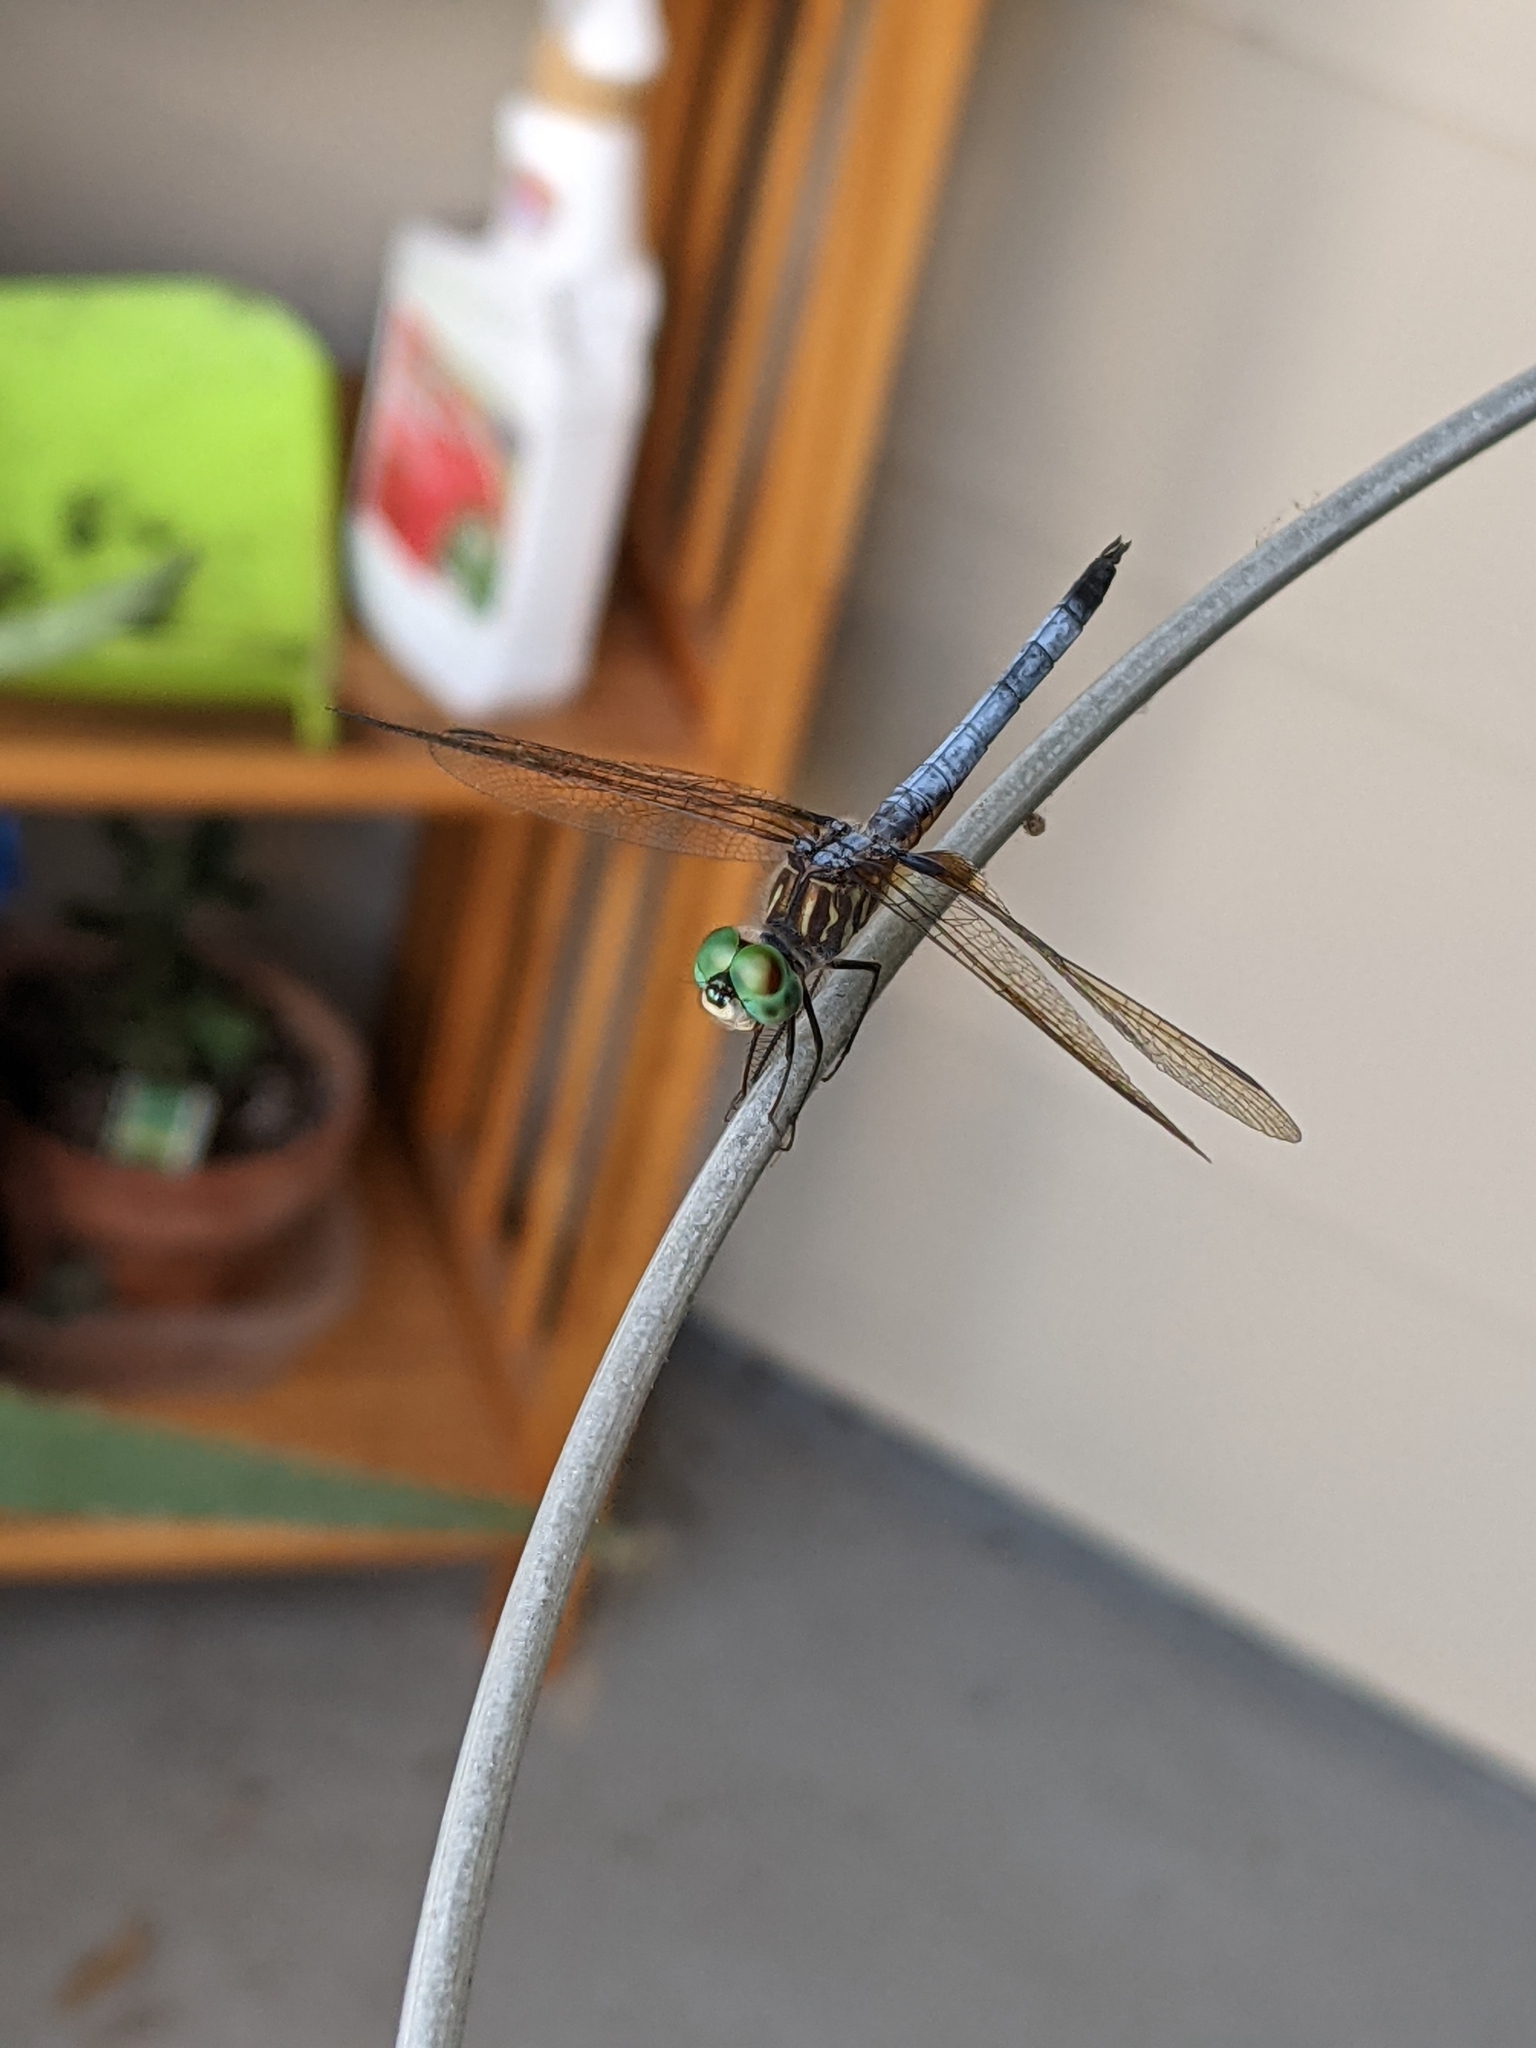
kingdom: Animalia
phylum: Arthropoda
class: Insecta
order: Odonata
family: Libellulidae
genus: Pachydiplax
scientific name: Pachydiplax longipennis
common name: Blue dasher
